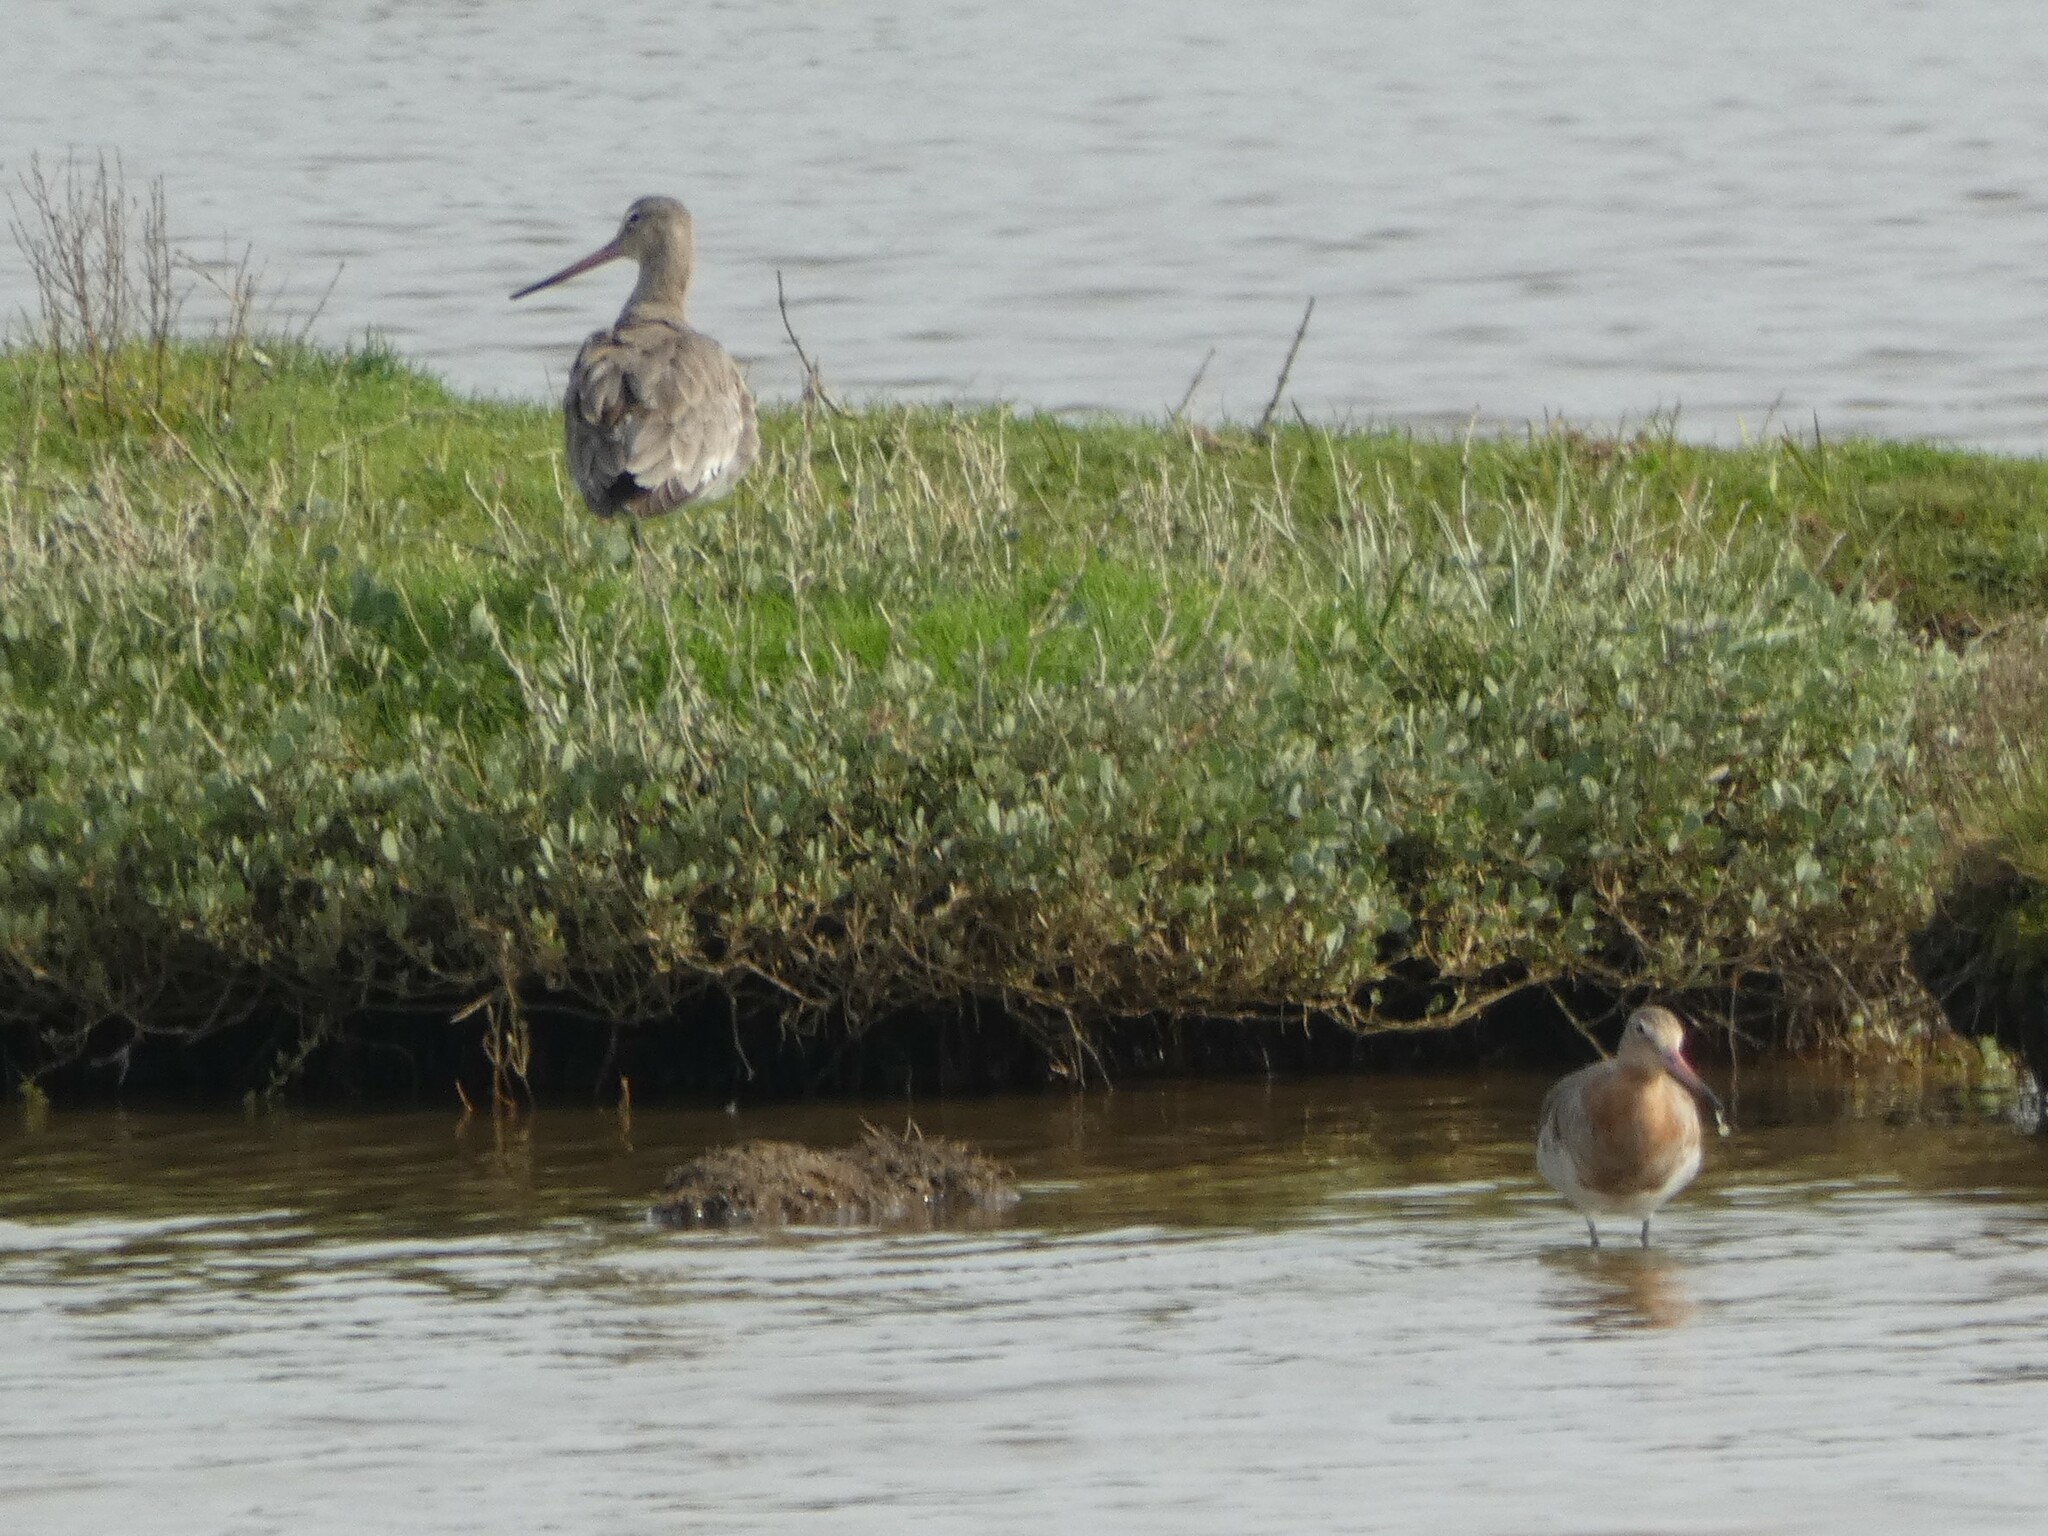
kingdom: Animalia
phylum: Chordata
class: Aves
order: Charadriiformes
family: Scolopacidae
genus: Limosa
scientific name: Limosa limosa
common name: Black-tailed godwit
